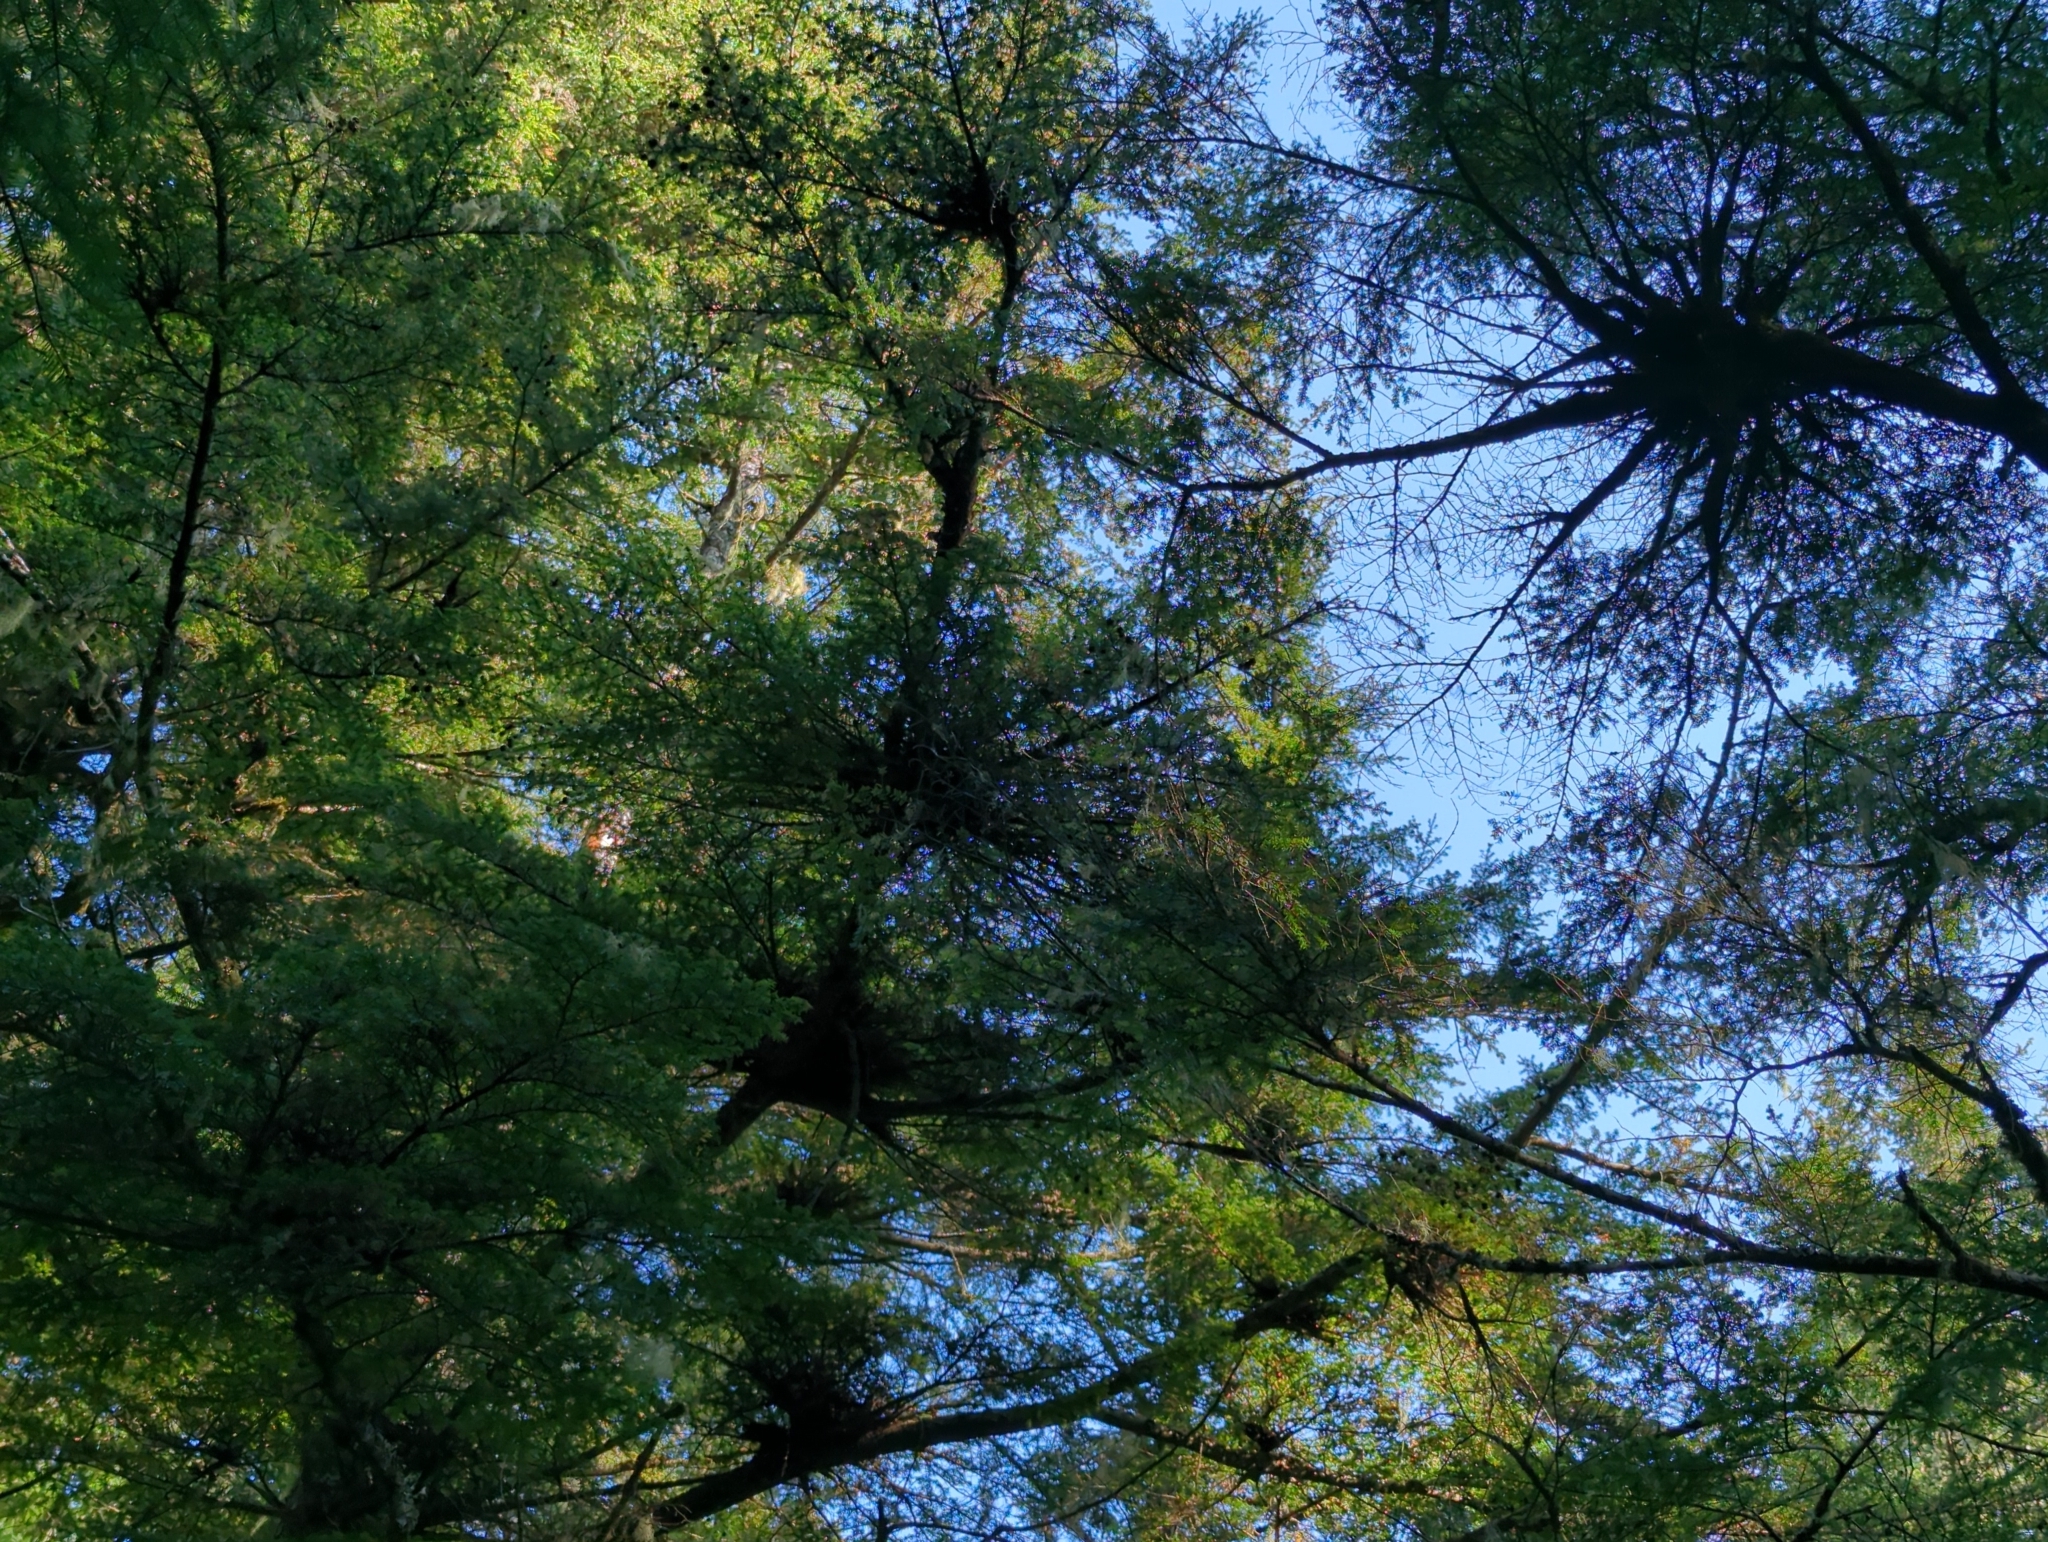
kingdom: Plantae
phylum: Tracheophyta
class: Magnoliopsida
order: Santalales
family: Viscaceae
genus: Arceuthobium
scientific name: Arceuthobium campylopodum
